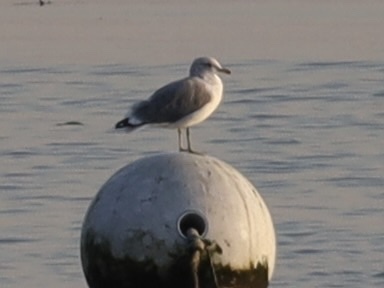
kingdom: Animalia
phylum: Chordata
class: Aves
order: Charadriiformes
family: Laridae
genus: Larus
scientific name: Larus californicus
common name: California gull
